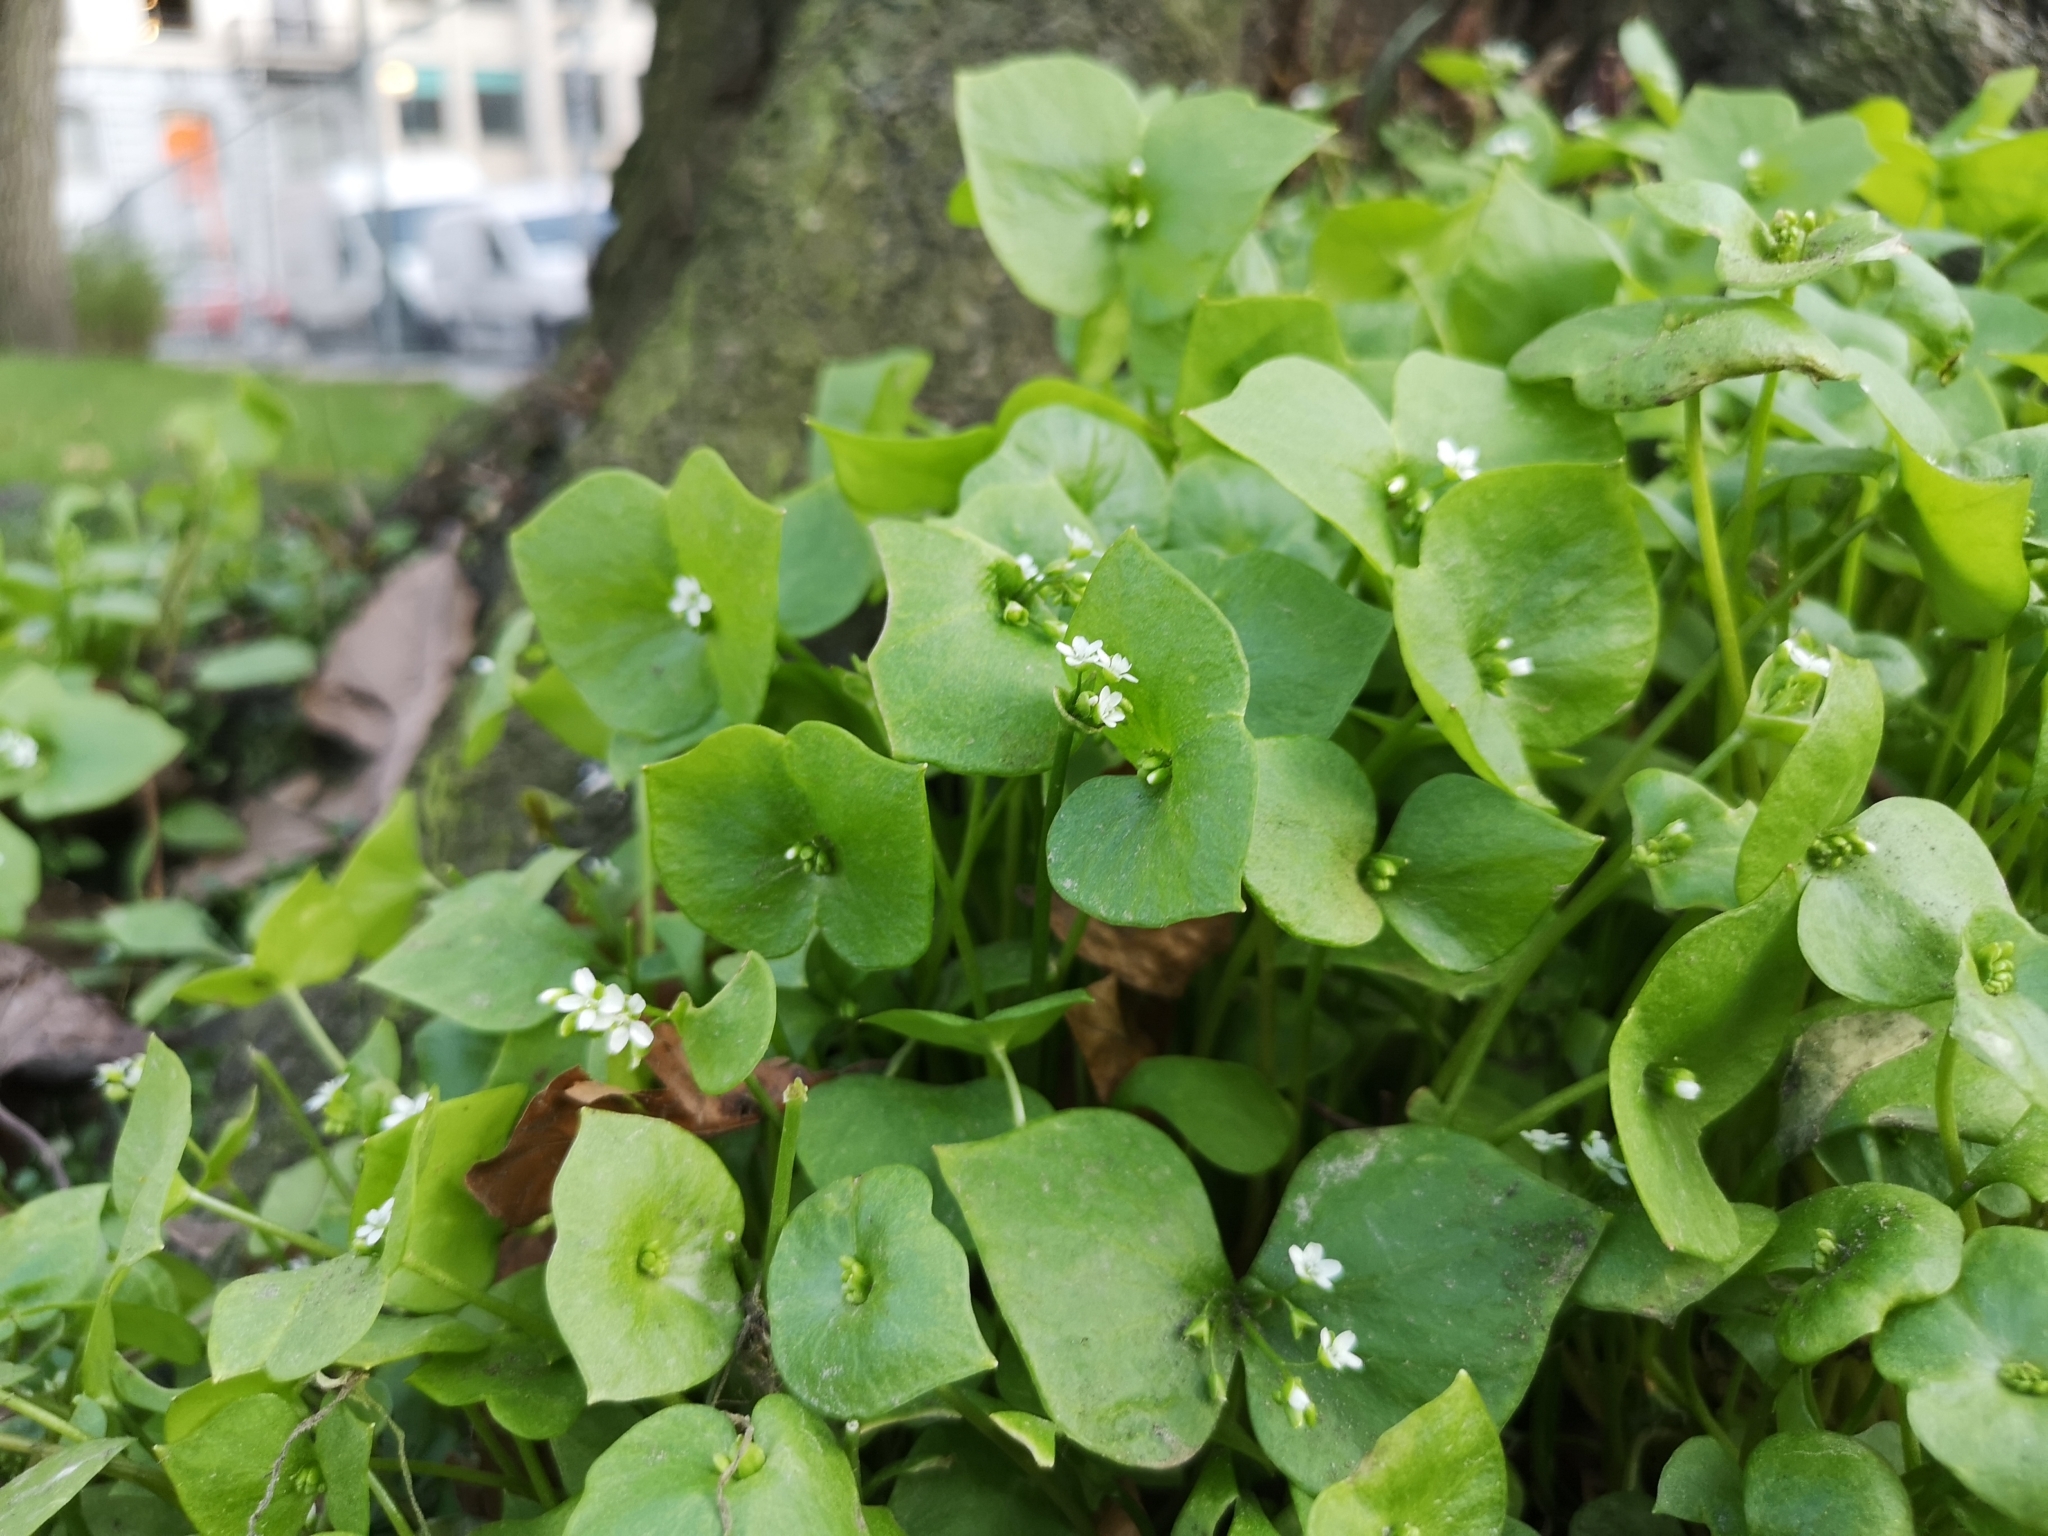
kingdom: Plantae
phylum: Tracheophyta
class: Magnoliopsida
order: Caryophyllales
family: Montiaceae
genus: Claytonia
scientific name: Claytonia perfoliata
